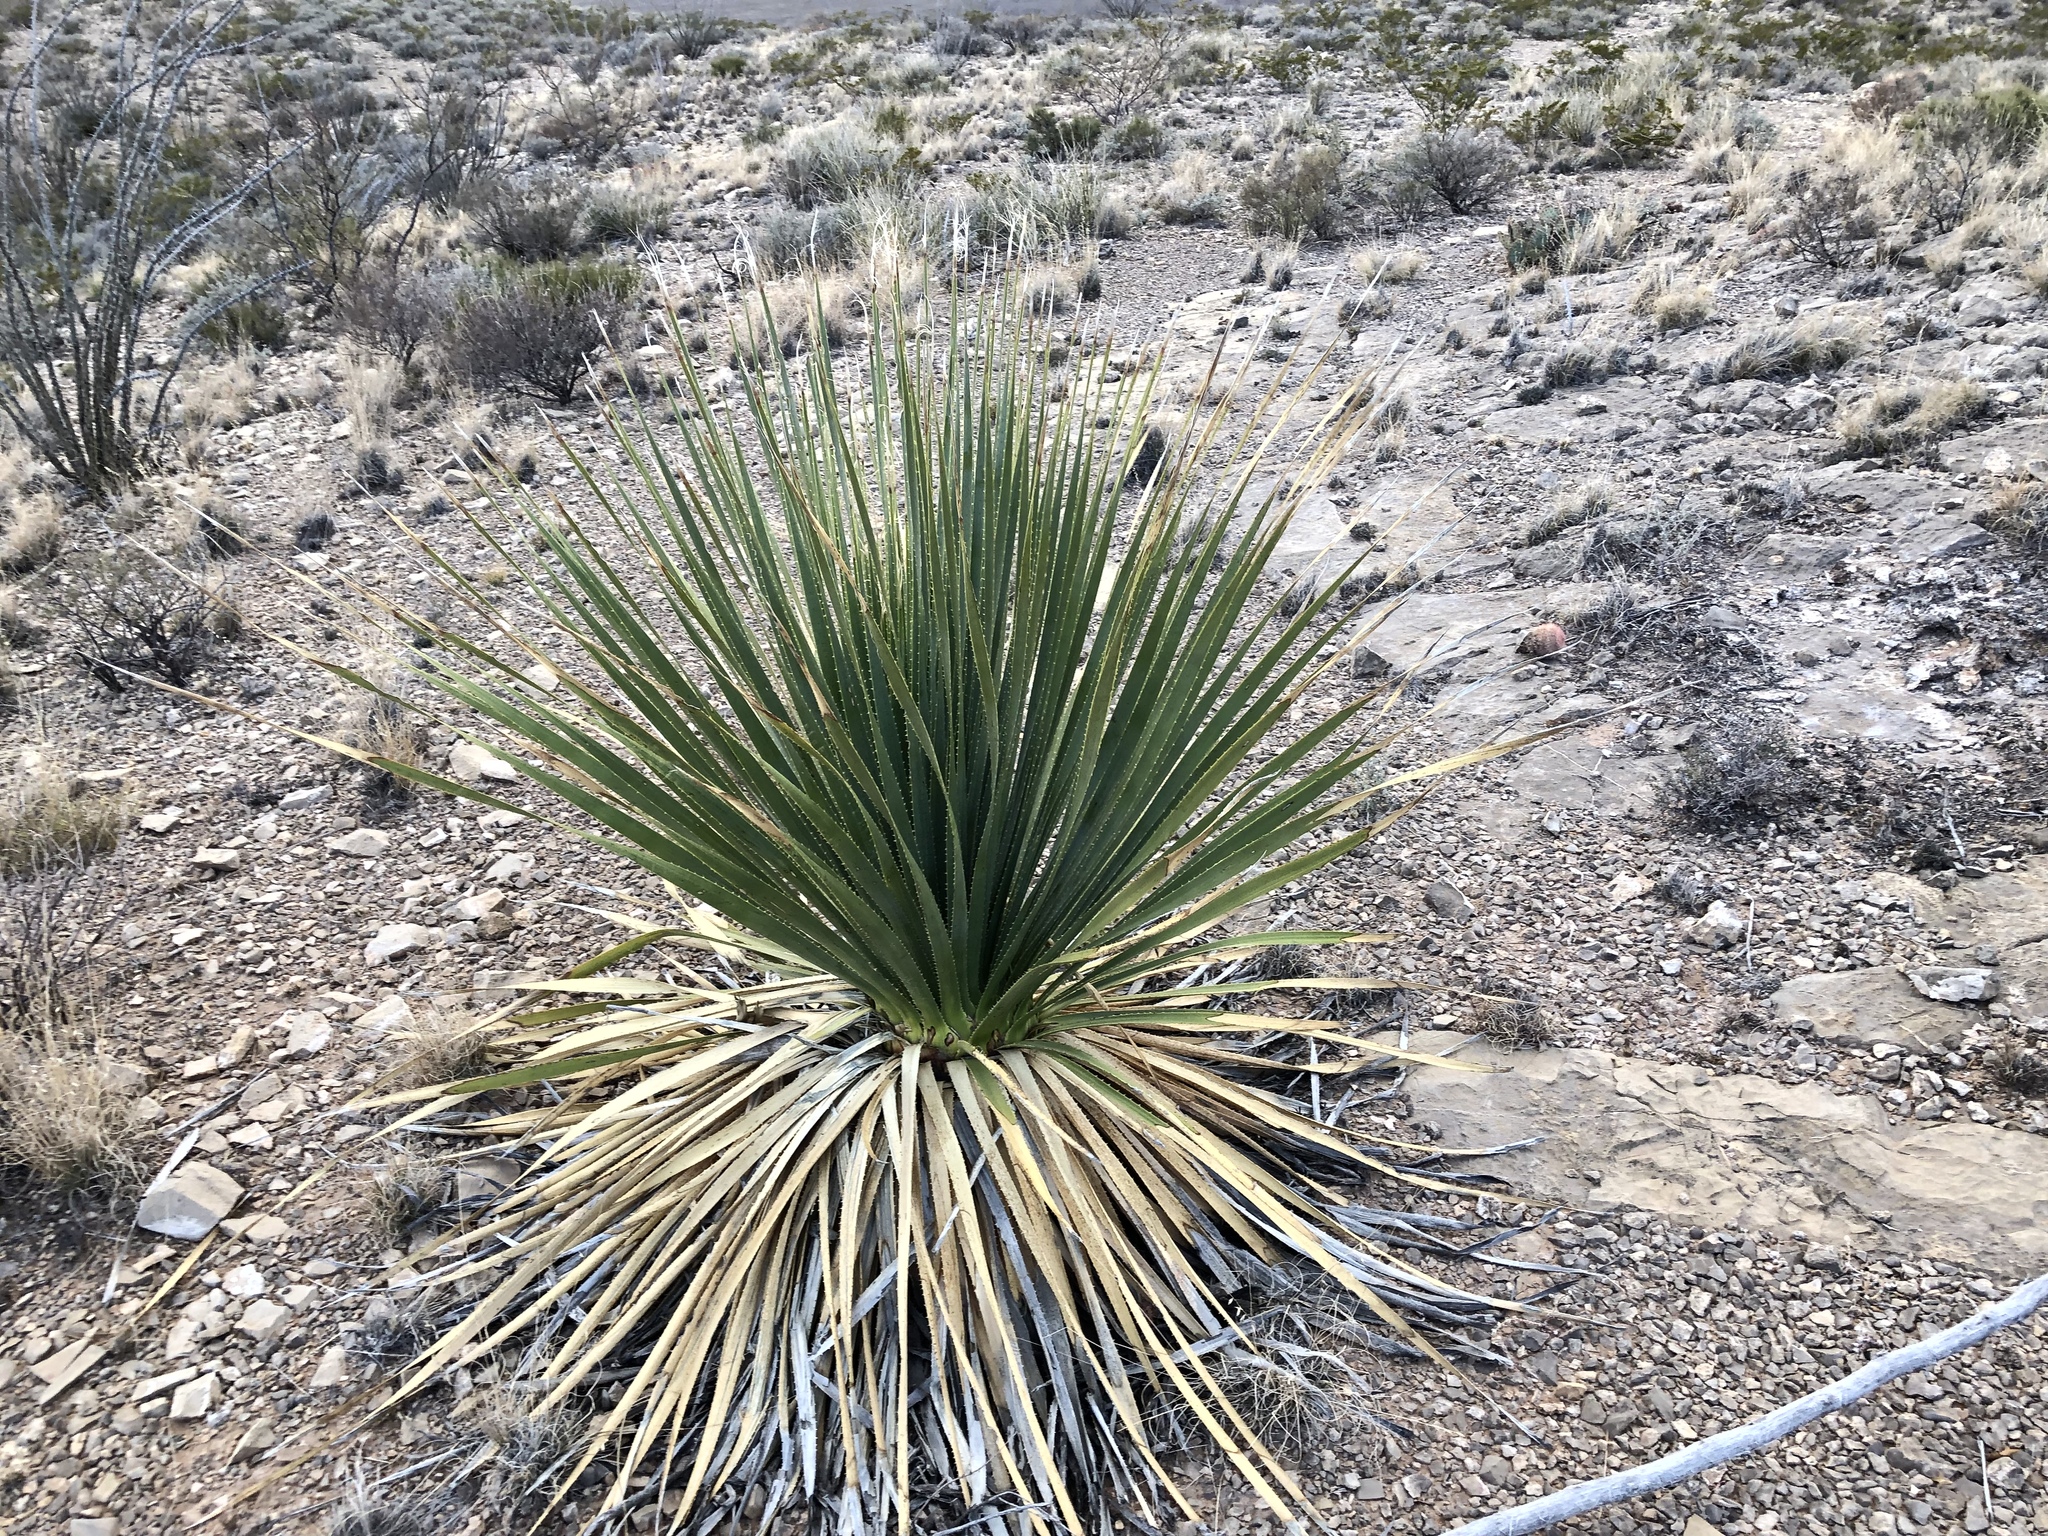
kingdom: Plantae
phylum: Tracheophyta
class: Liliopsida
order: Asparagales
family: Asparagaceae
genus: Dasylirion
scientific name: Dasylirion wheeleri
